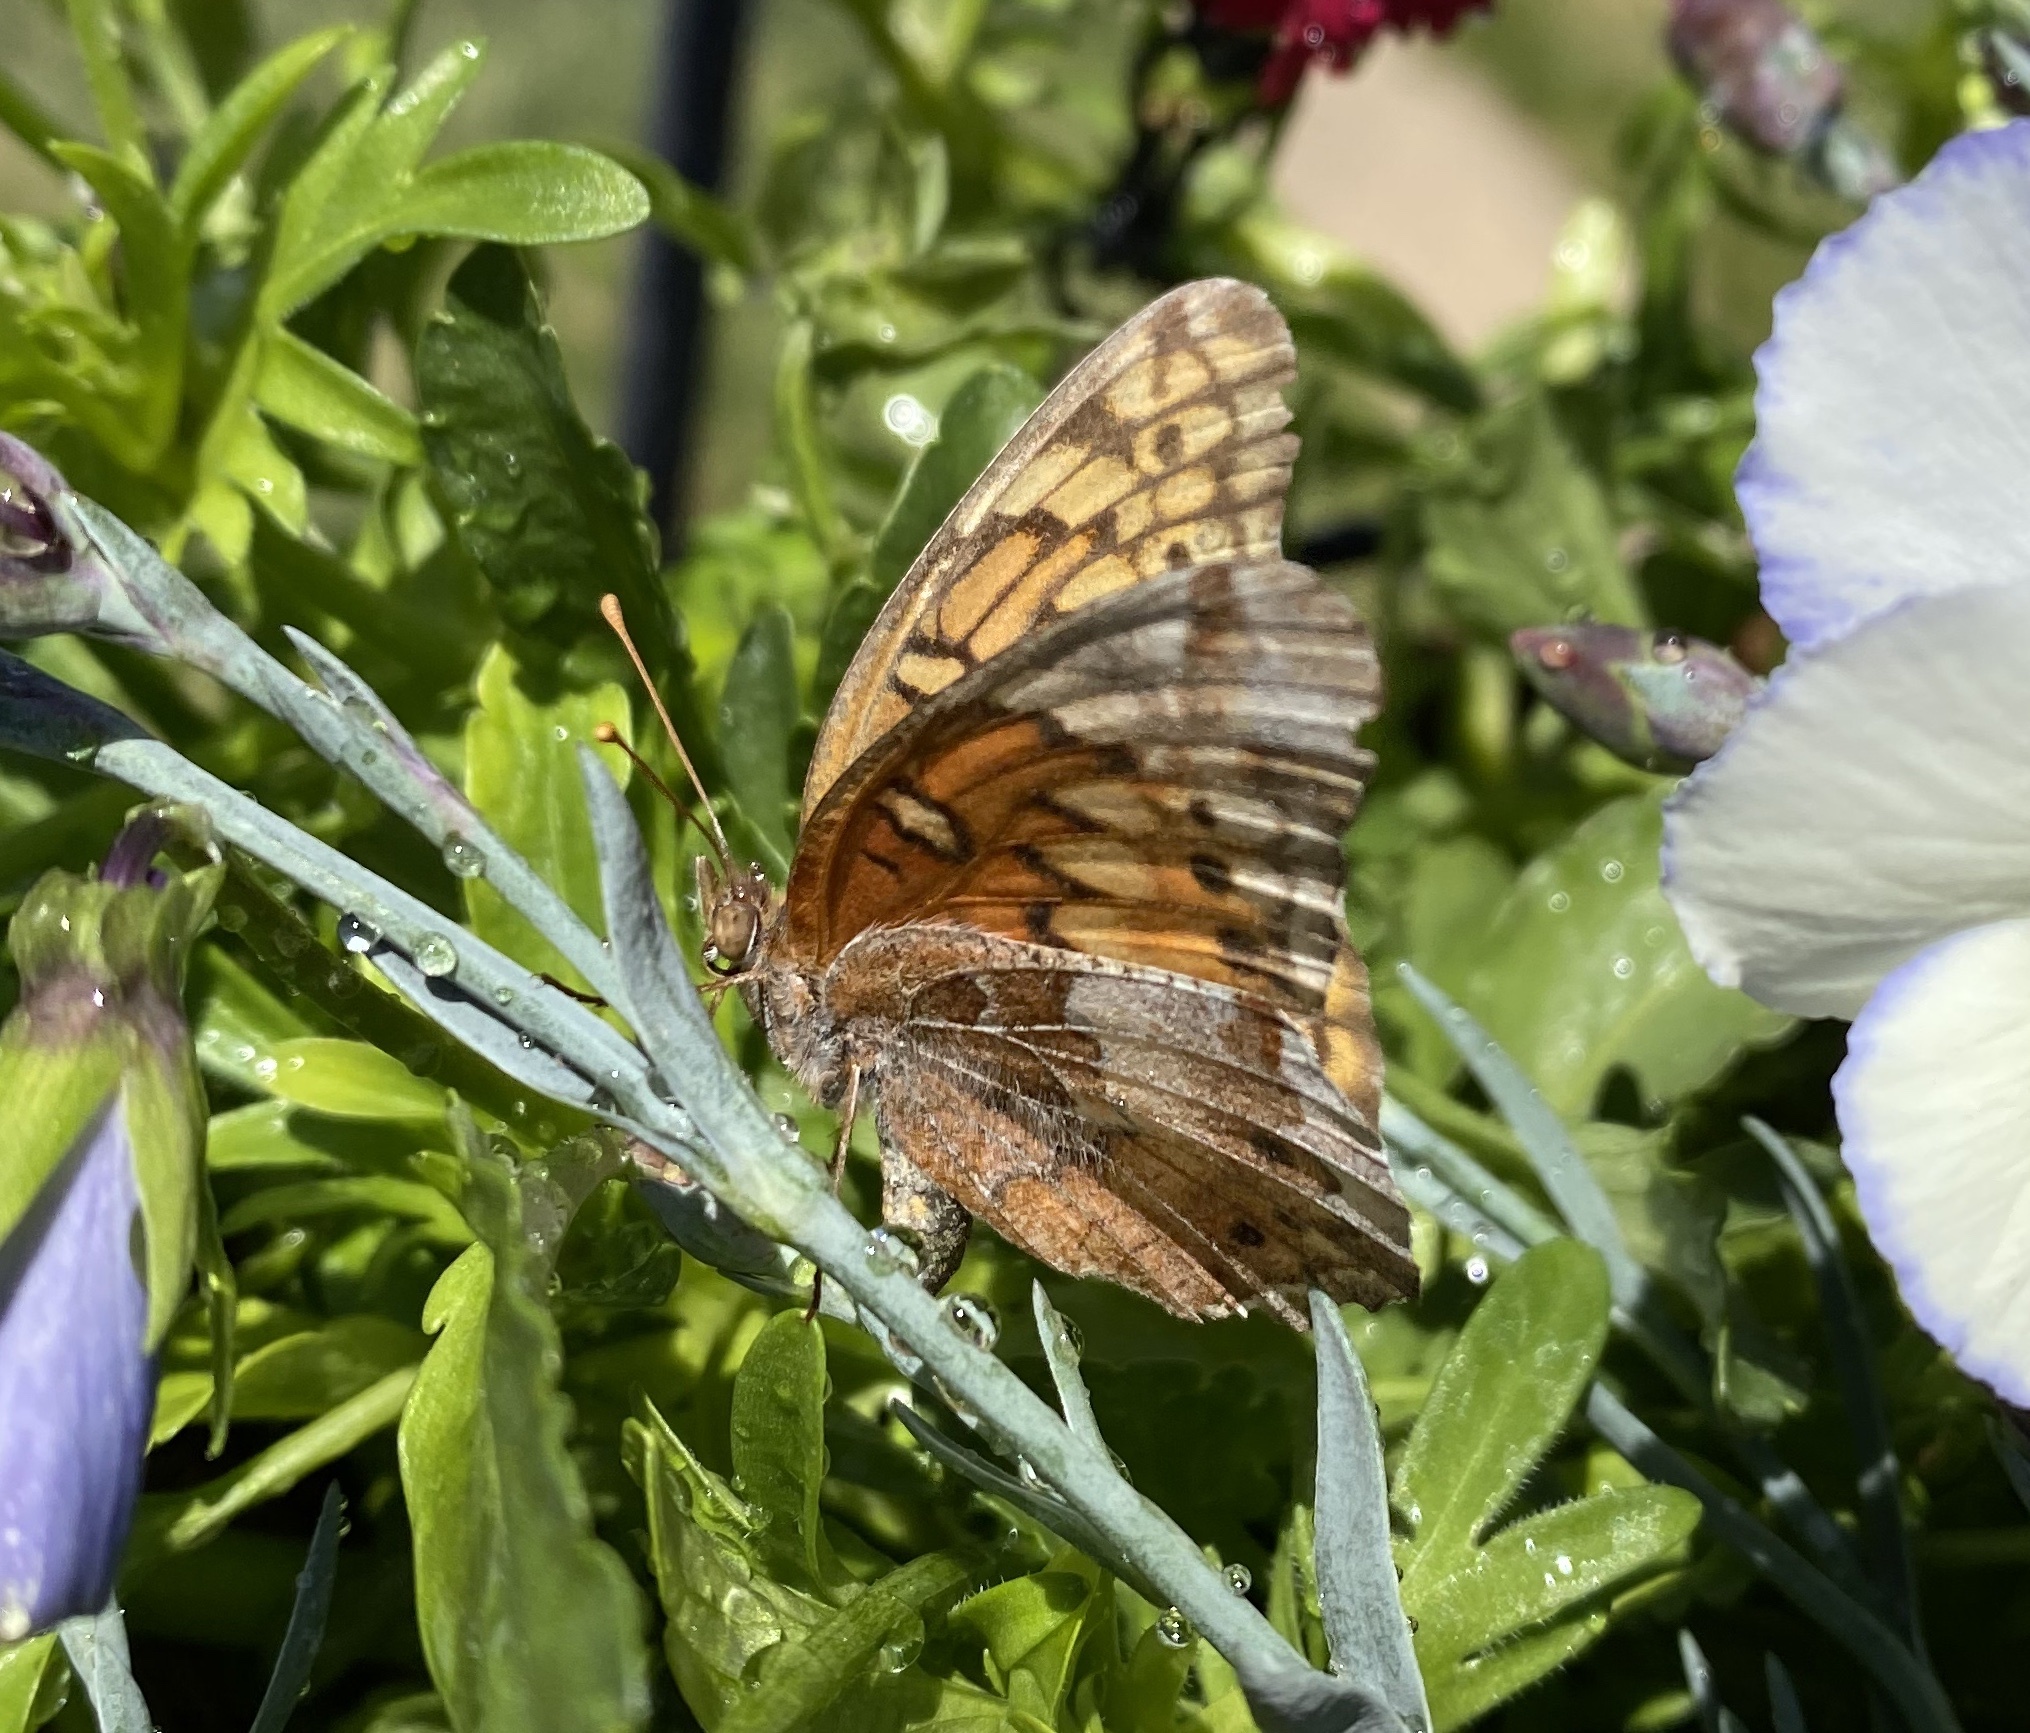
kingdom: Animalia
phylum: Arthropoda
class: Insecta
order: Lepidoptera
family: Nymphalidae
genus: Euptoieta
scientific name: Euptoieta claudia
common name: Variegated fritillary
